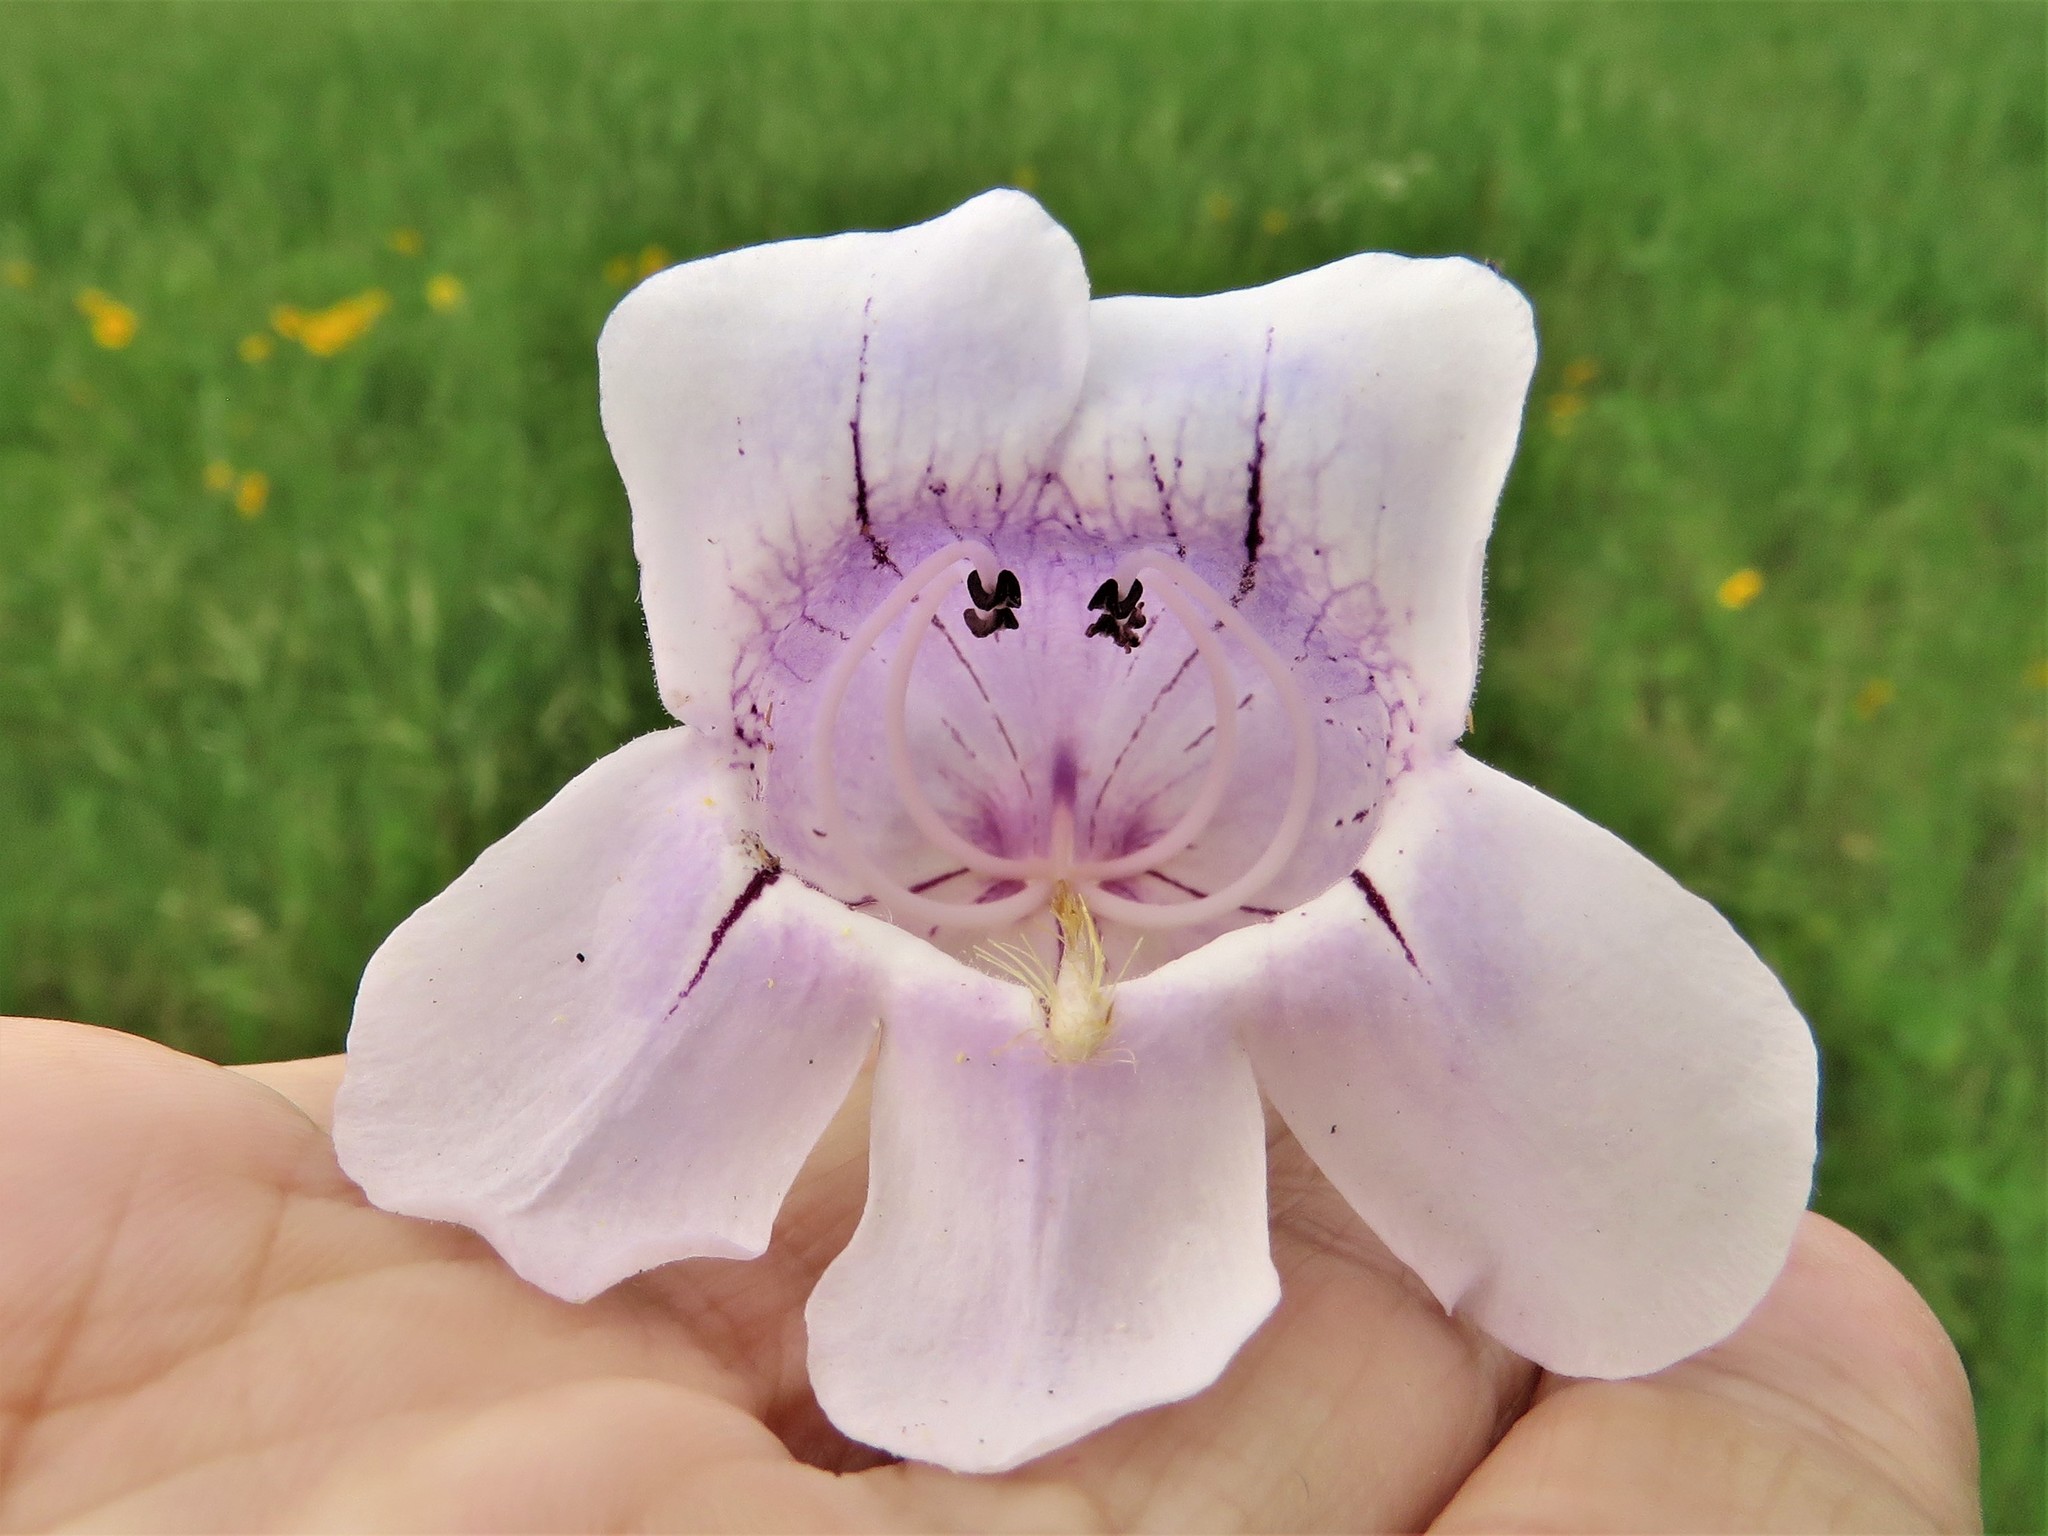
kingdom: Plantae
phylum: Tracheophyta
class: Magnoliopsida
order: Lamiales
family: Plantaginaceae
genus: Penstemon
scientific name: Penstemon cobaea
